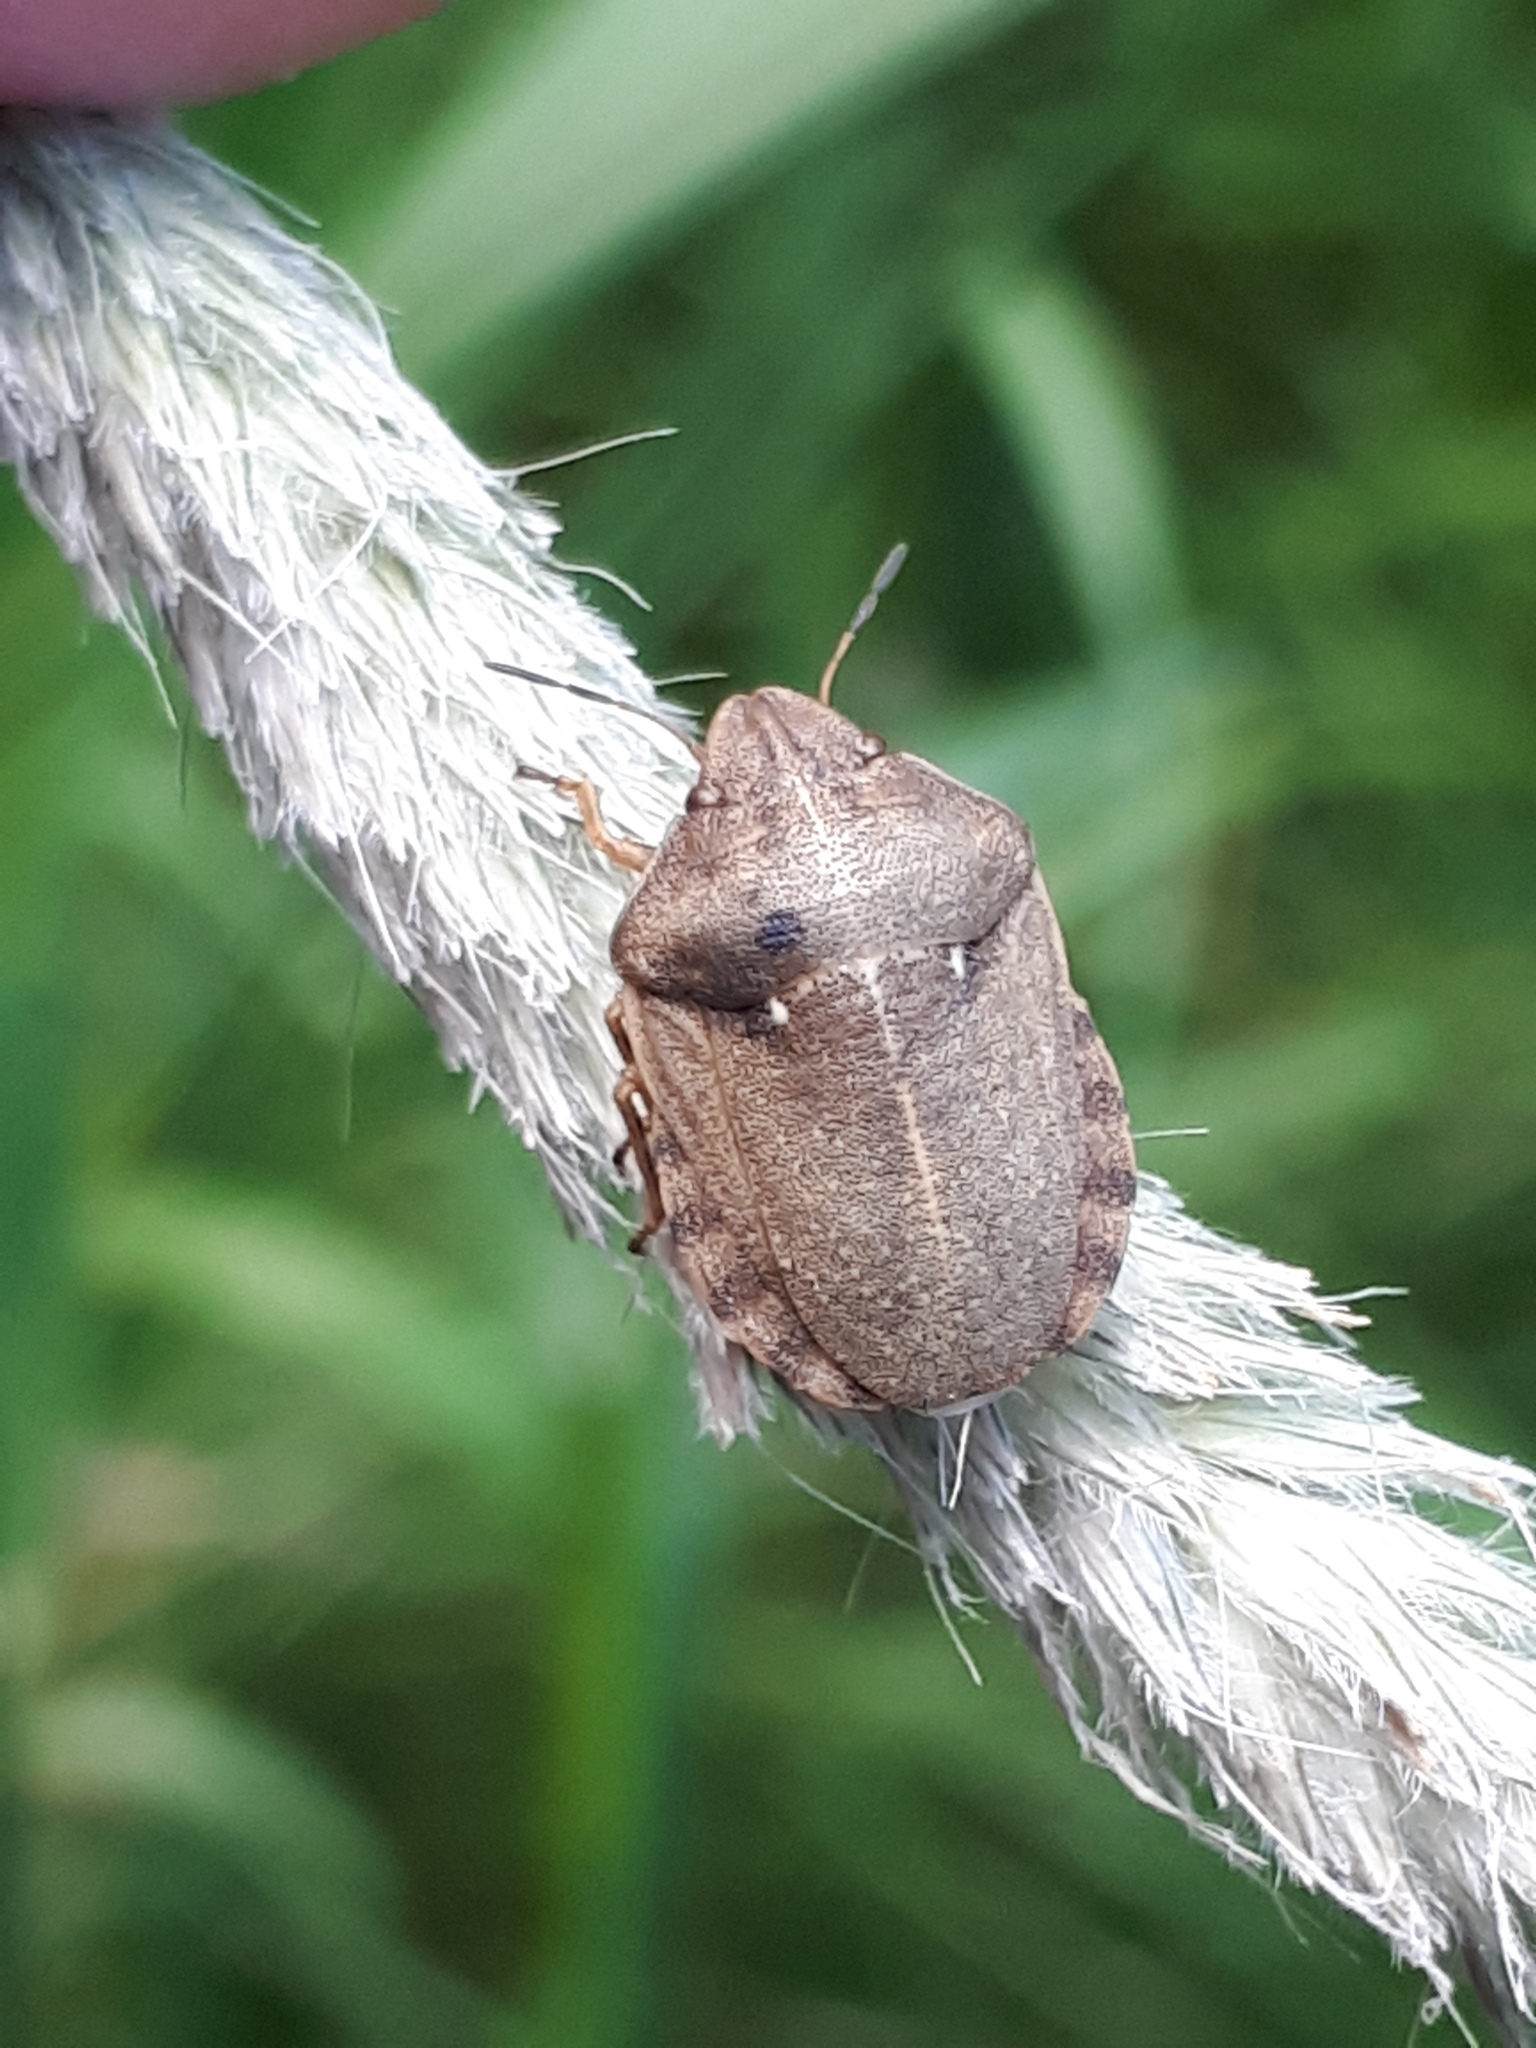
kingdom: Animalia
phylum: Arthropoda
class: Insecta
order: Hemiptera
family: Scutelleridae
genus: Eurygaster
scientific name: Eurygaster testudinaria
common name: Tortoise bug
